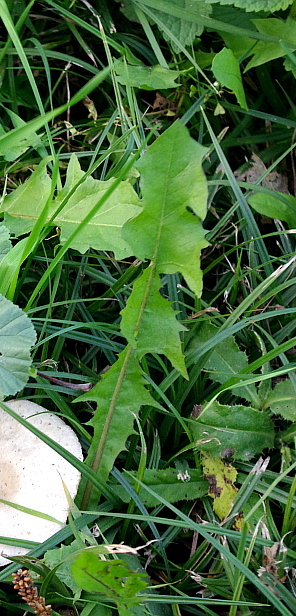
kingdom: Plantae
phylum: Tracheophyta
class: Magnoliopsida
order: Asterales
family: Asteraceae
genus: Taraxacum
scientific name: Taraxacum officinale
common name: Common dandelion
